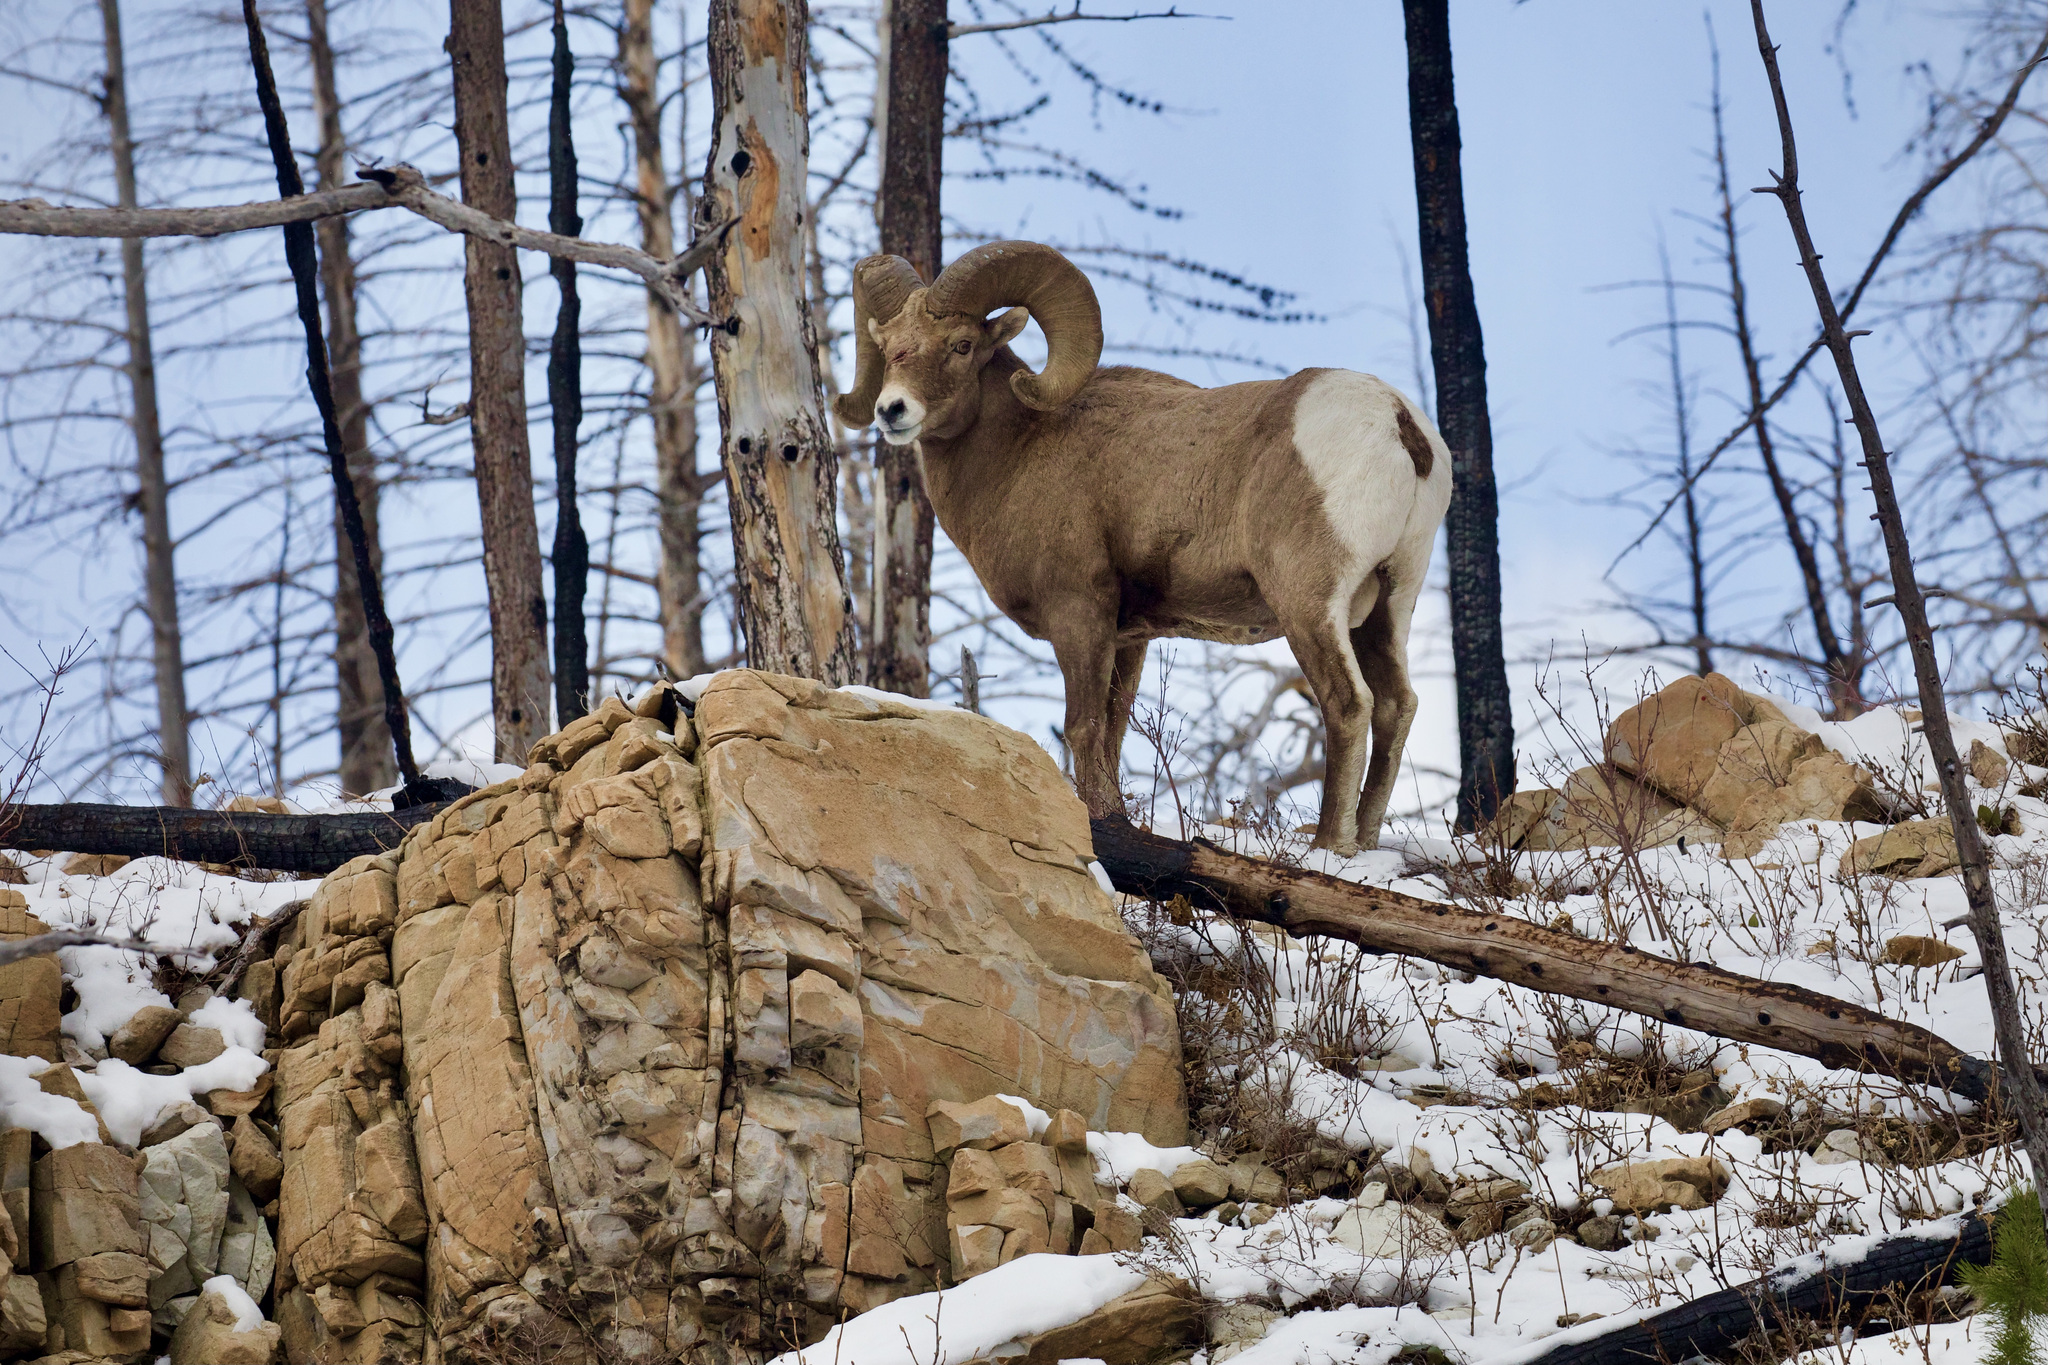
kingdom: Animalia
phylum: Chordata
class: Mammalia
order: Artiodactyla
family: Bovidae
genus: Ovis
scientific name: Ovis canadensis
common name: Bighorn sheep
